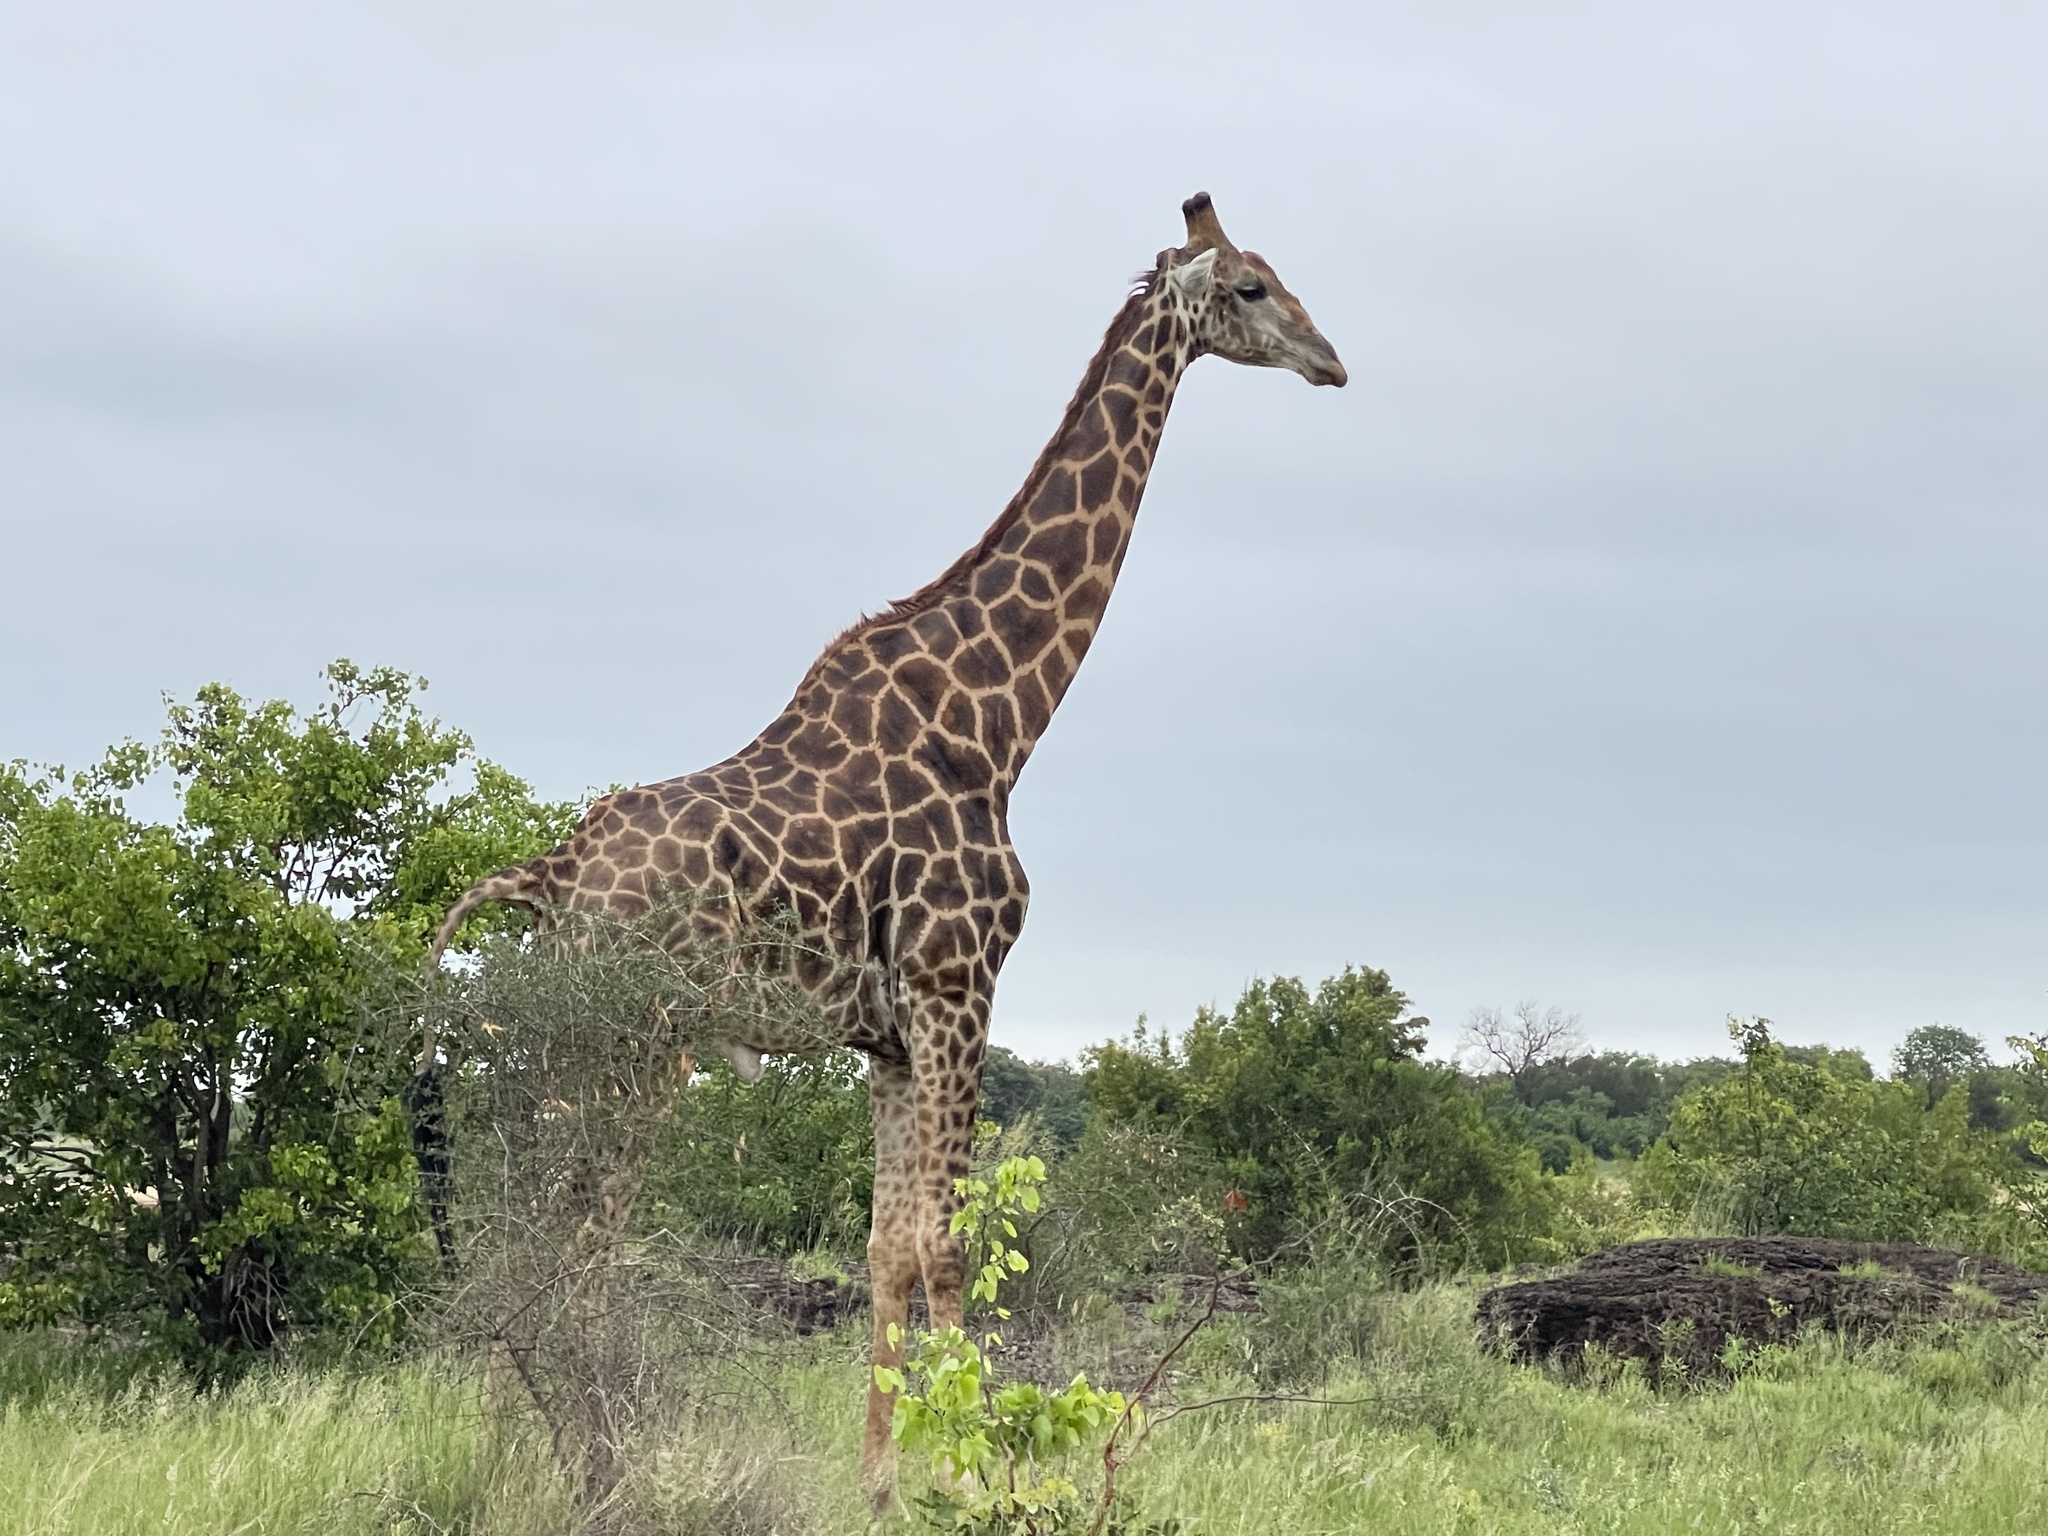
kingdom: Animalia
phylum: Chordata
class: Mammalia
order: Artiodactyla
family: Giraffidae
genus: Giraffa
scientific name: Giraffa giraffa
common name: Southern giraffe
